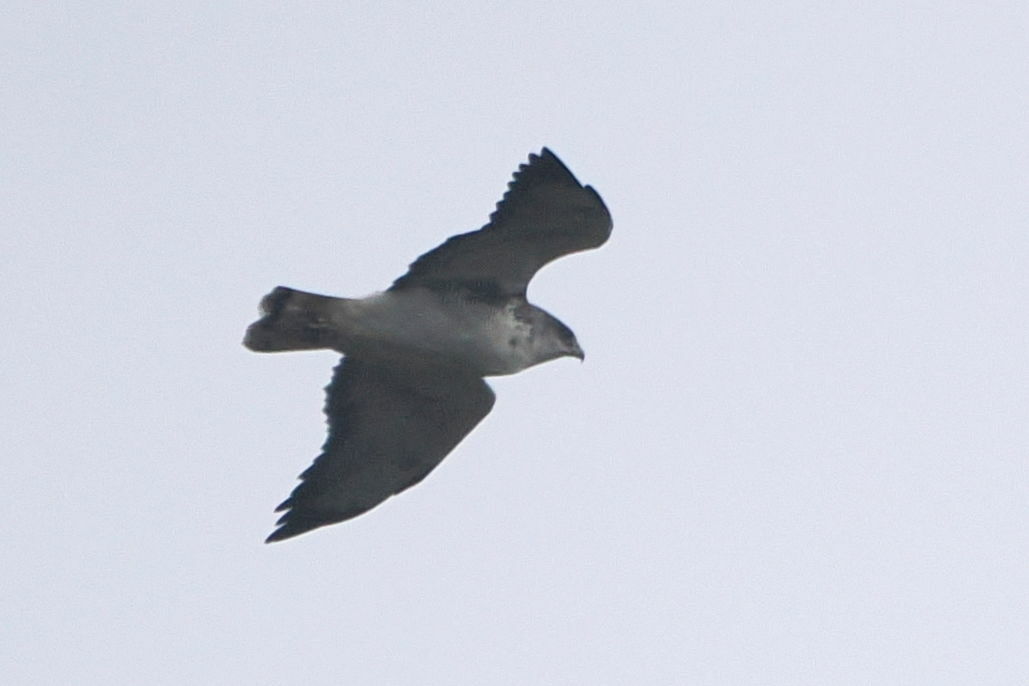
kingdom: Animalia
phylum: Chordata
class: Aves
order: Accipitriformes
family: Accipitridae
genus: Buteo
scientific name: Buteo polyosoma
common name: Variable hawk
